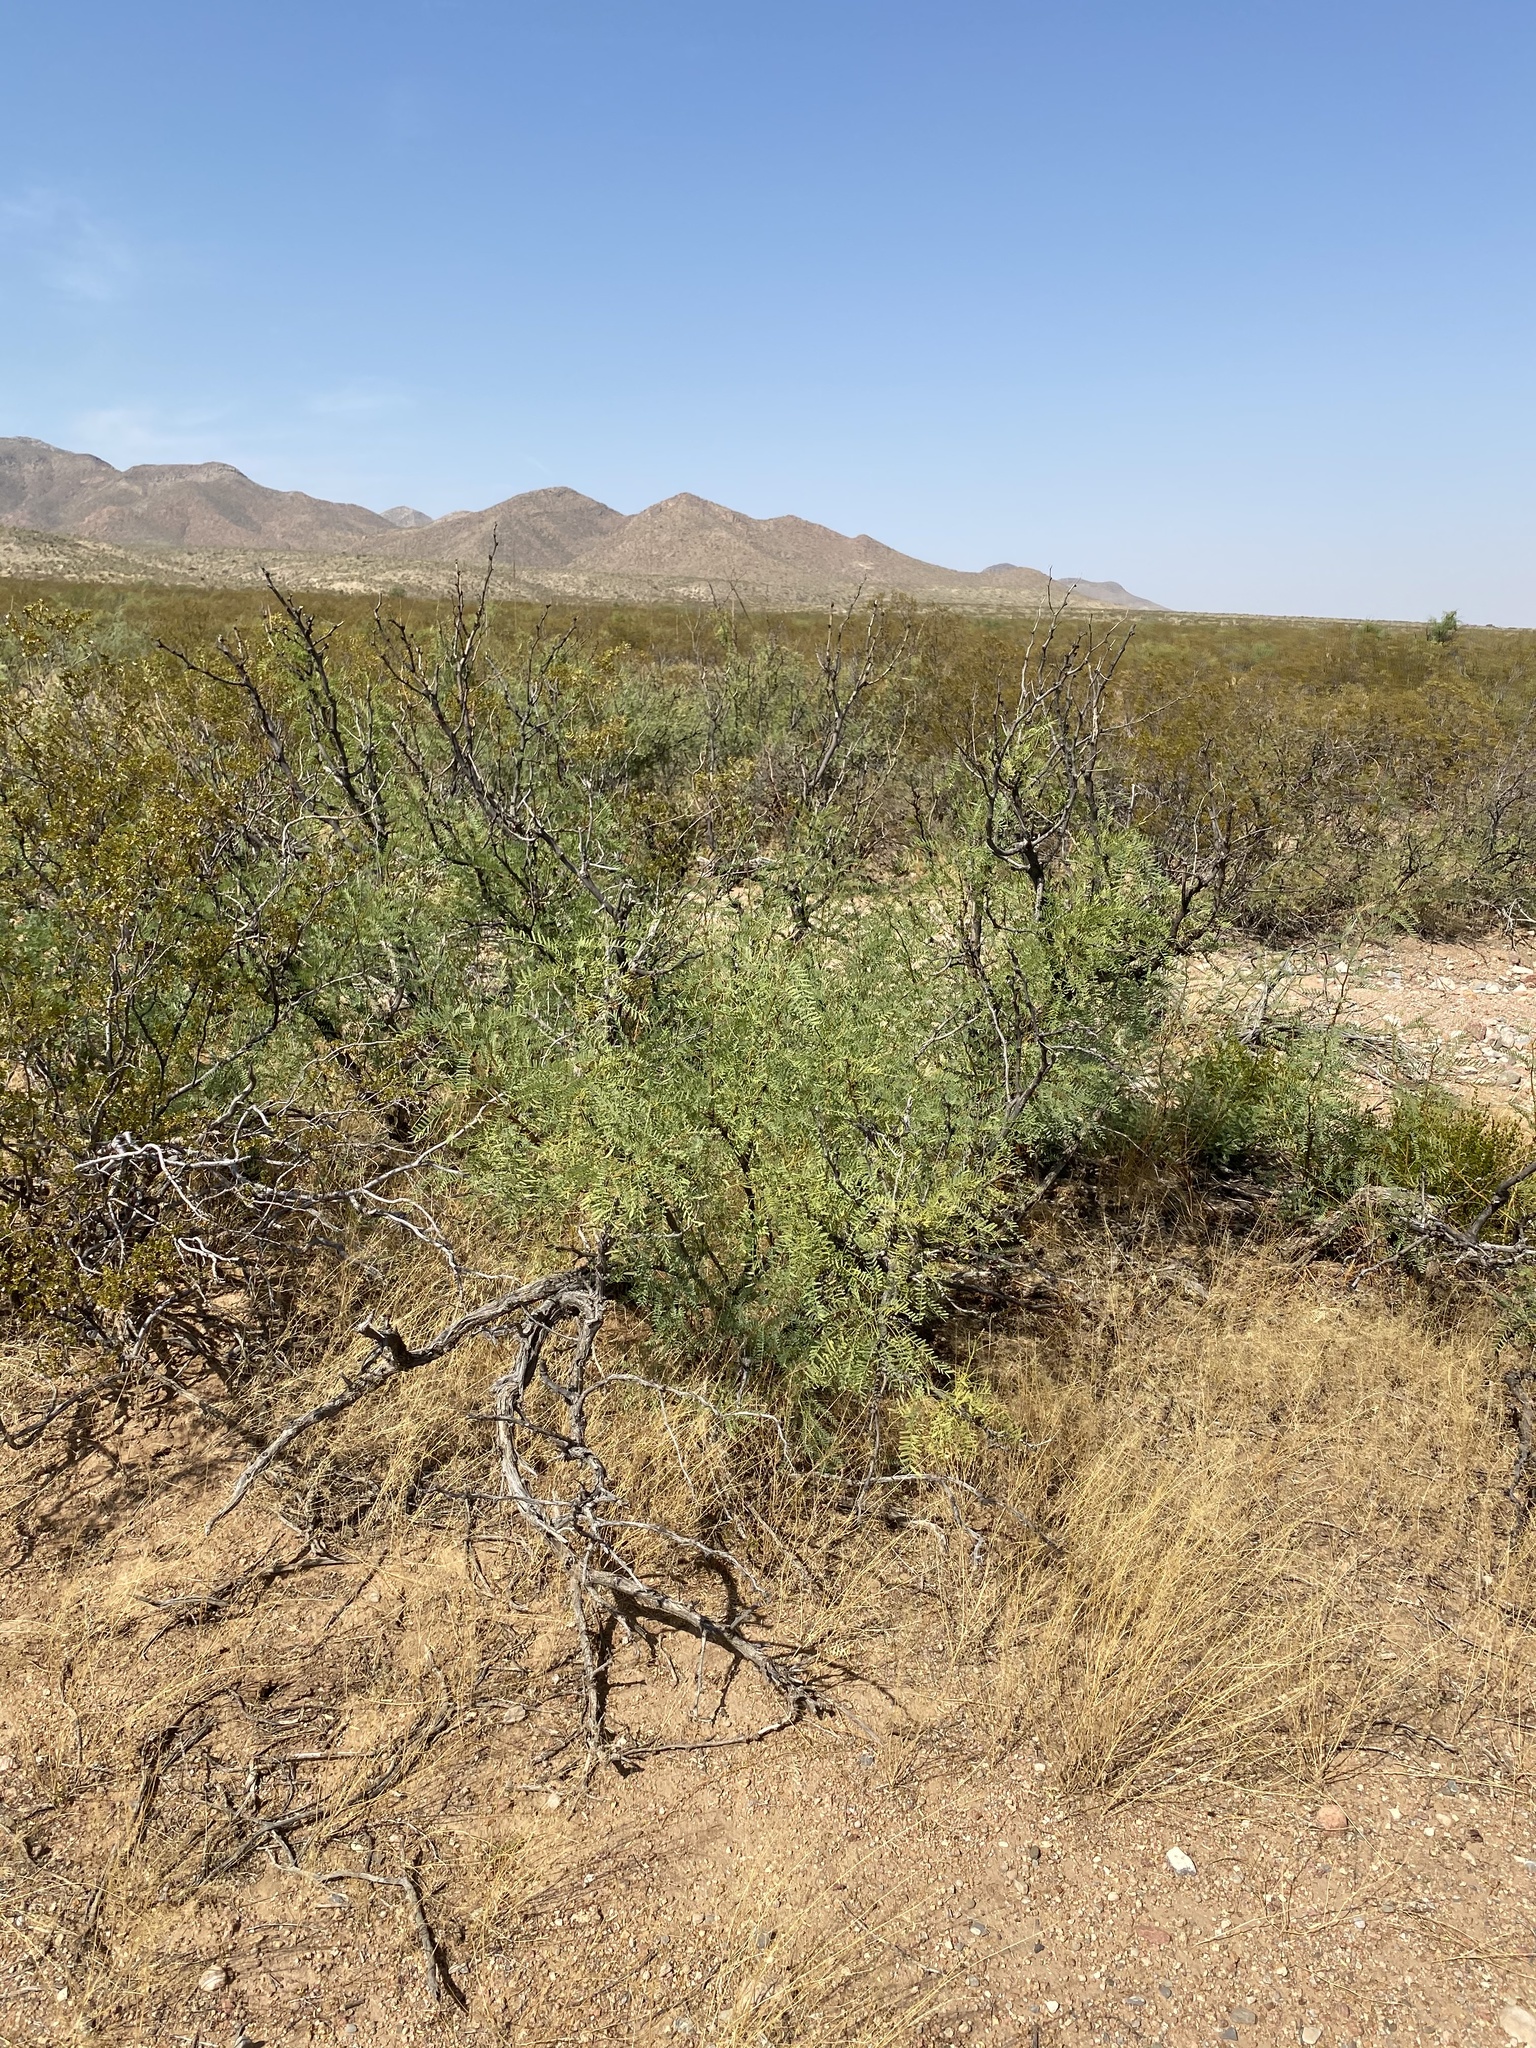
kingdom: Plantae
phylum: Tracheophyta
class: Magnoliopsida
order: Fabales
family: Fabaceae
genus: Prosopis
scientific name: Prosopis glandulosa
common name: Honey mesquite
